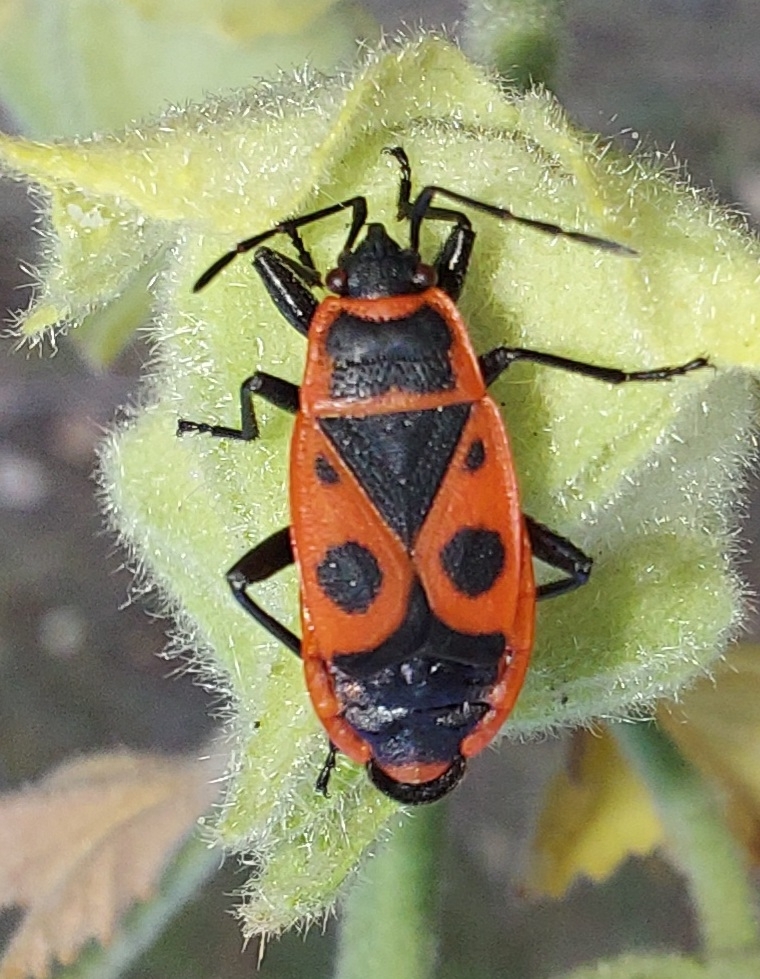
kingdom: Animalia
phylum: Arthropoda
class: Insecta
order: Hemiptera
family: Pyrrhocoridae
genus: Pyrrhocoris
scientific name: Pyrrhocoris apterus
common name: Firebug
